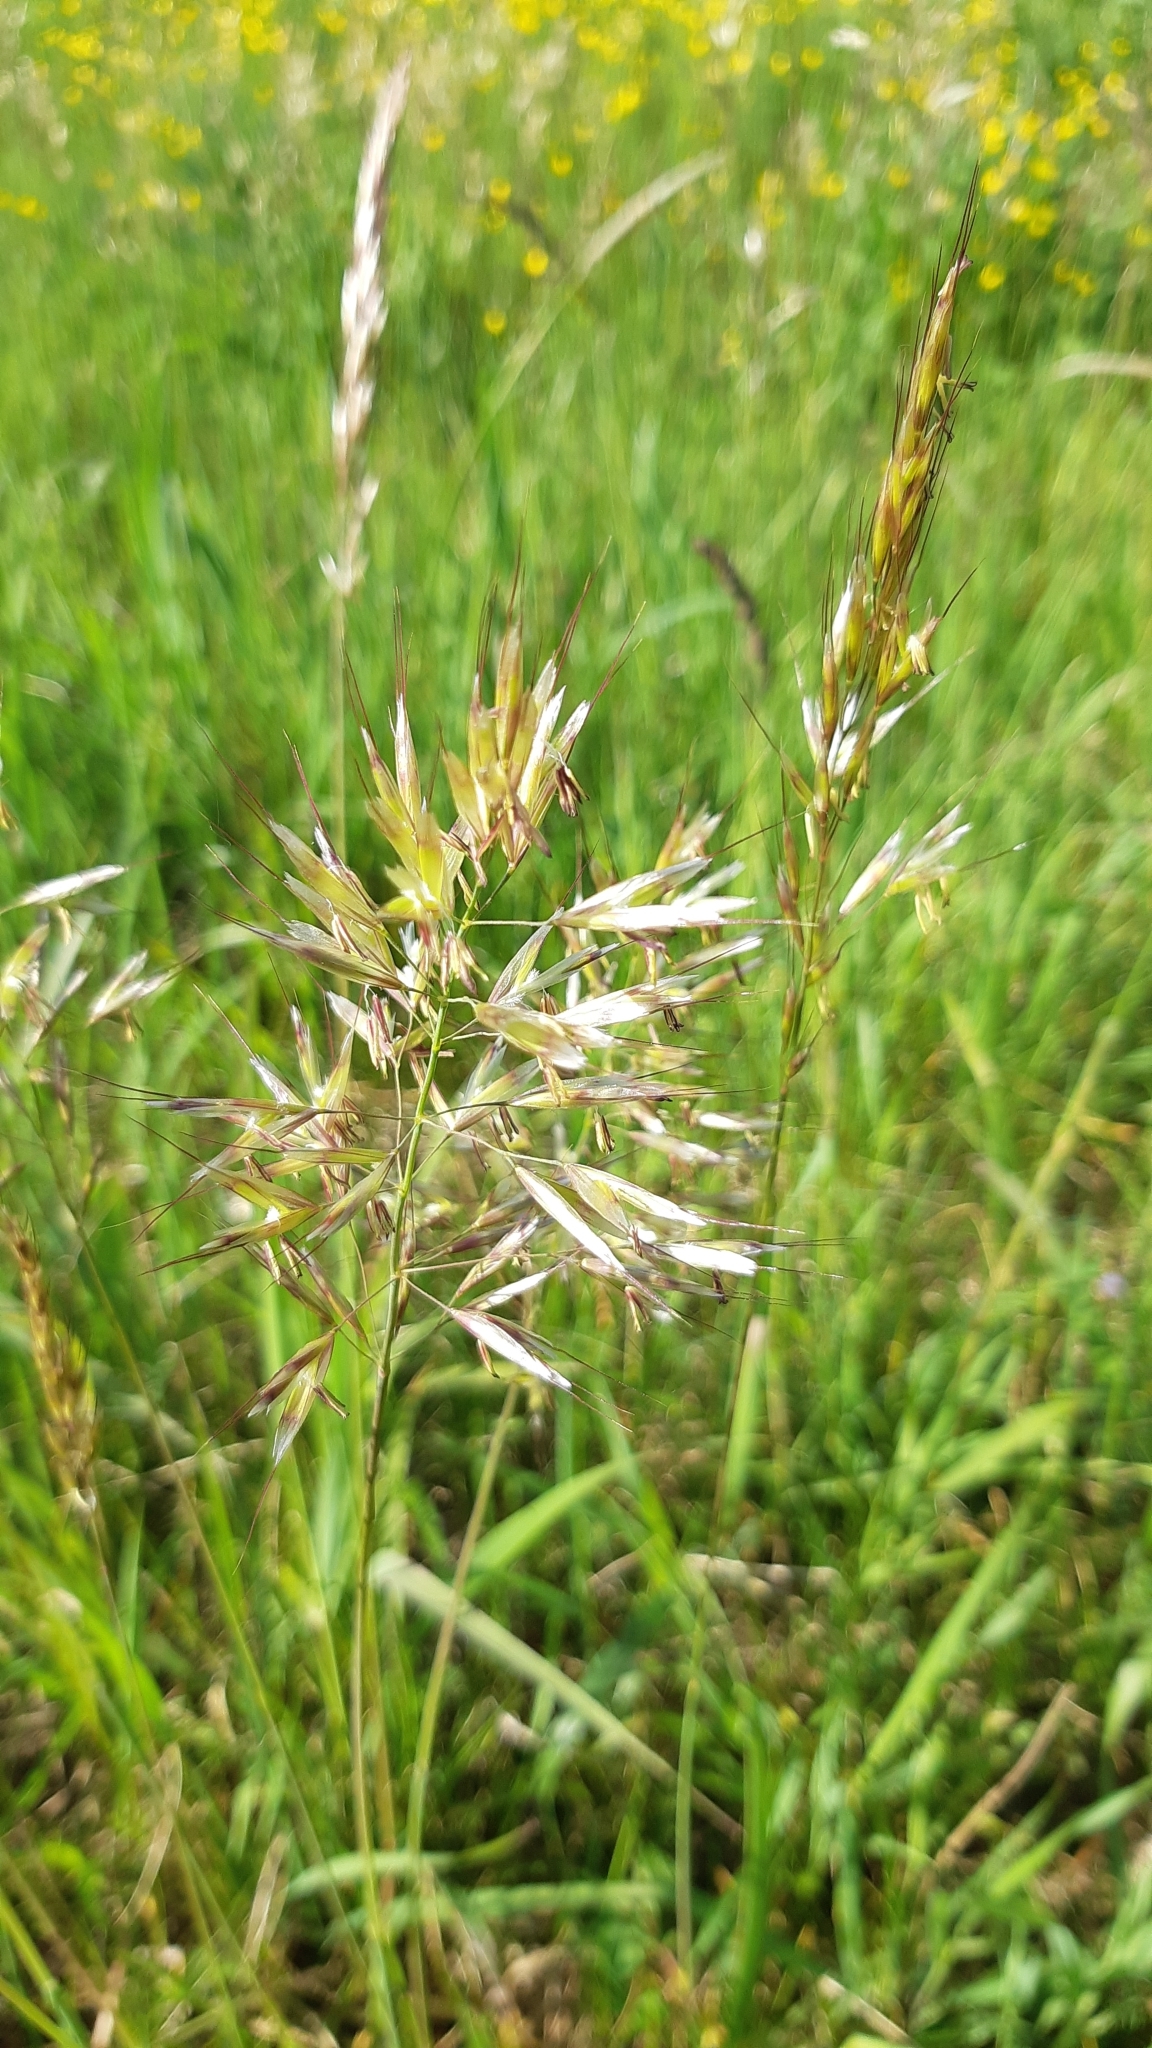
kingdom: Plantae
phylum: Tracheophyta
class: Liliopsida
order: Poales
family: Poaceae
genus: Avenula
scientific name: Avenula pubescens
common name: Downy alpine oatgrass
